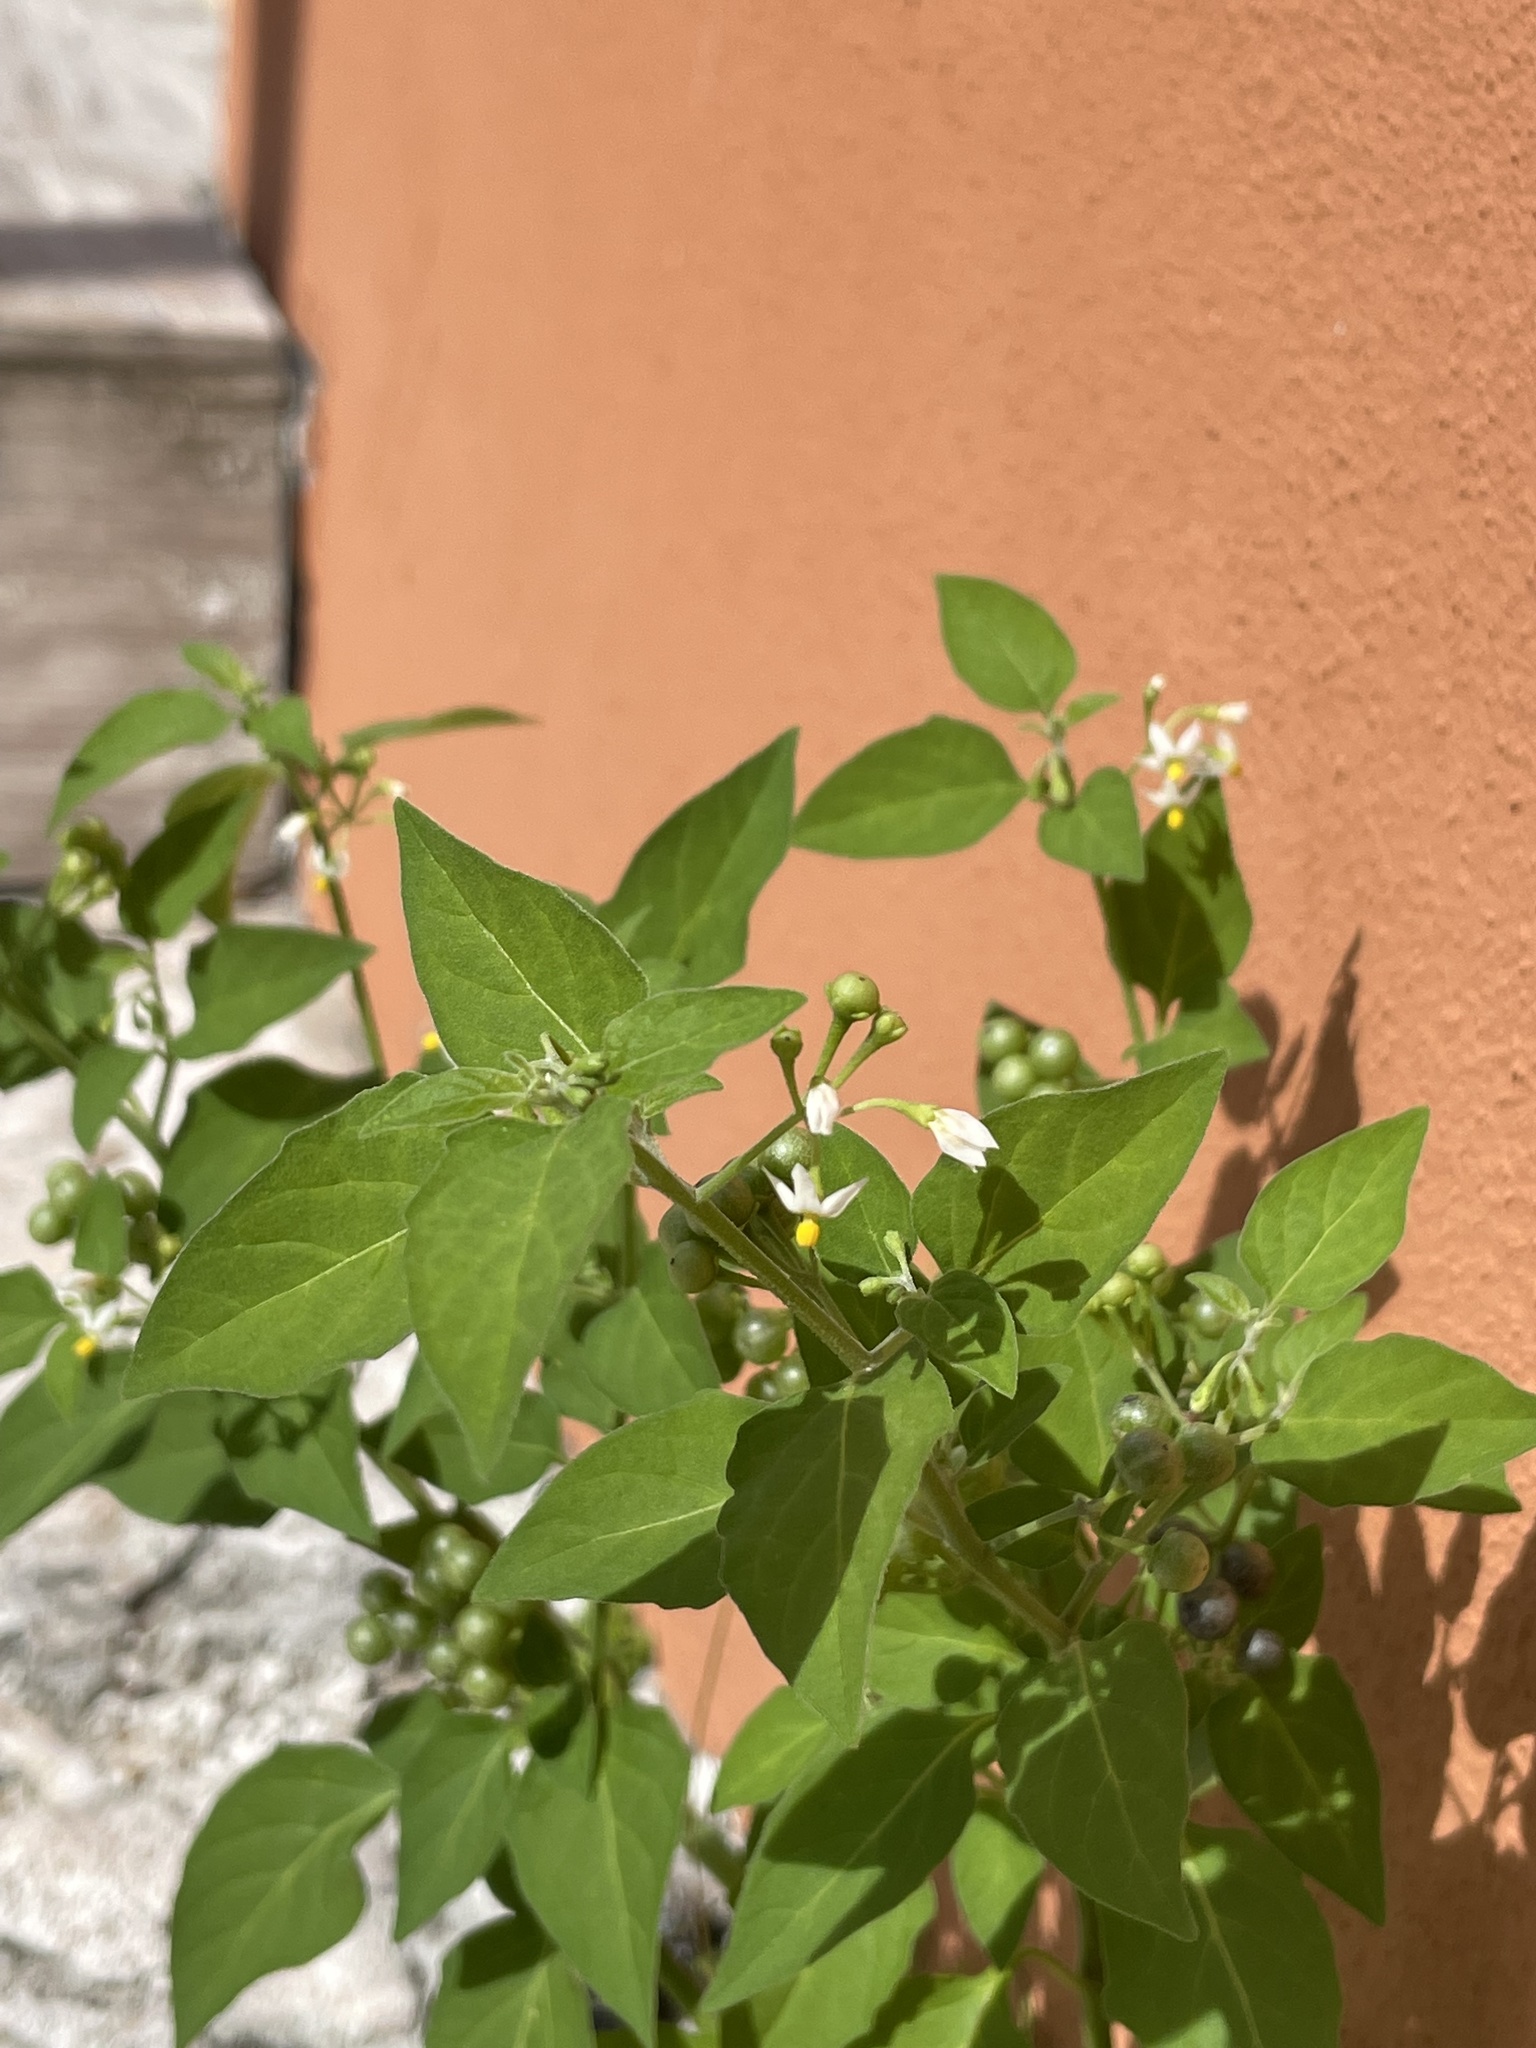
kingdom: Plantae
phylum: Tracheophyta
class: Magnoliopsida
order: Solanales
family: Solanaceae
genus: Solanum
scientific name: Solanum americanum
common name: American black nightshade
